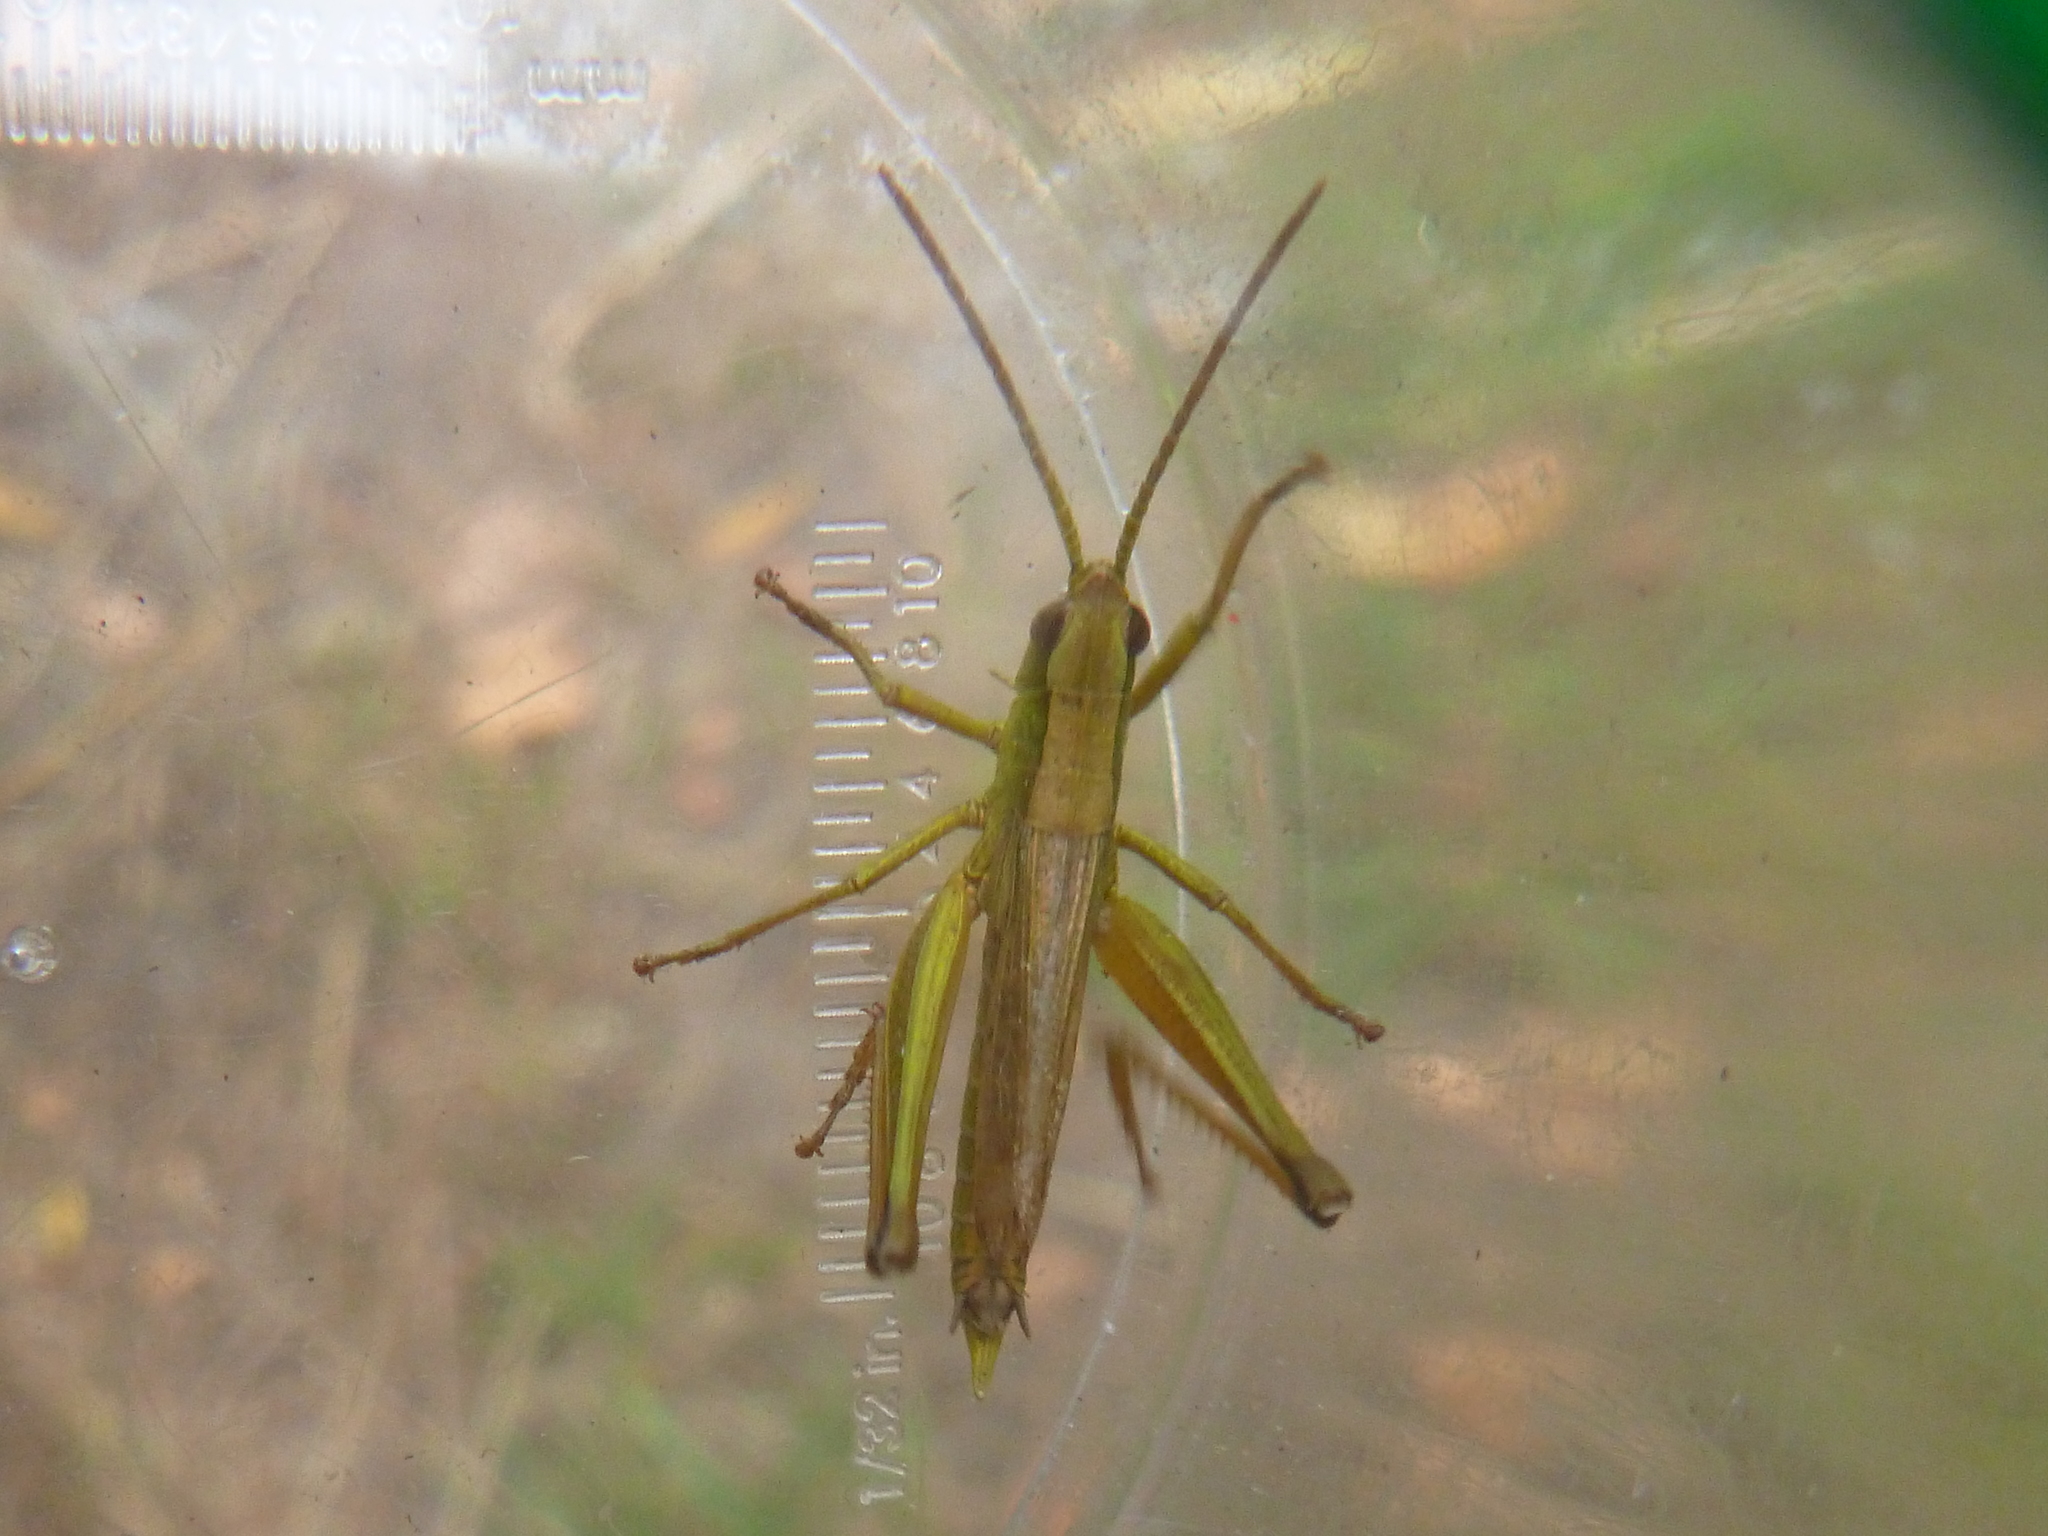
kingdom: Animalia
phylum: Arthropoda
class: Insecta
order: Orthoptera
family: Acrididae
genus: Chrysochraon
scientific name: Chrysochraon dispar
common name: Large gold grasshopper
